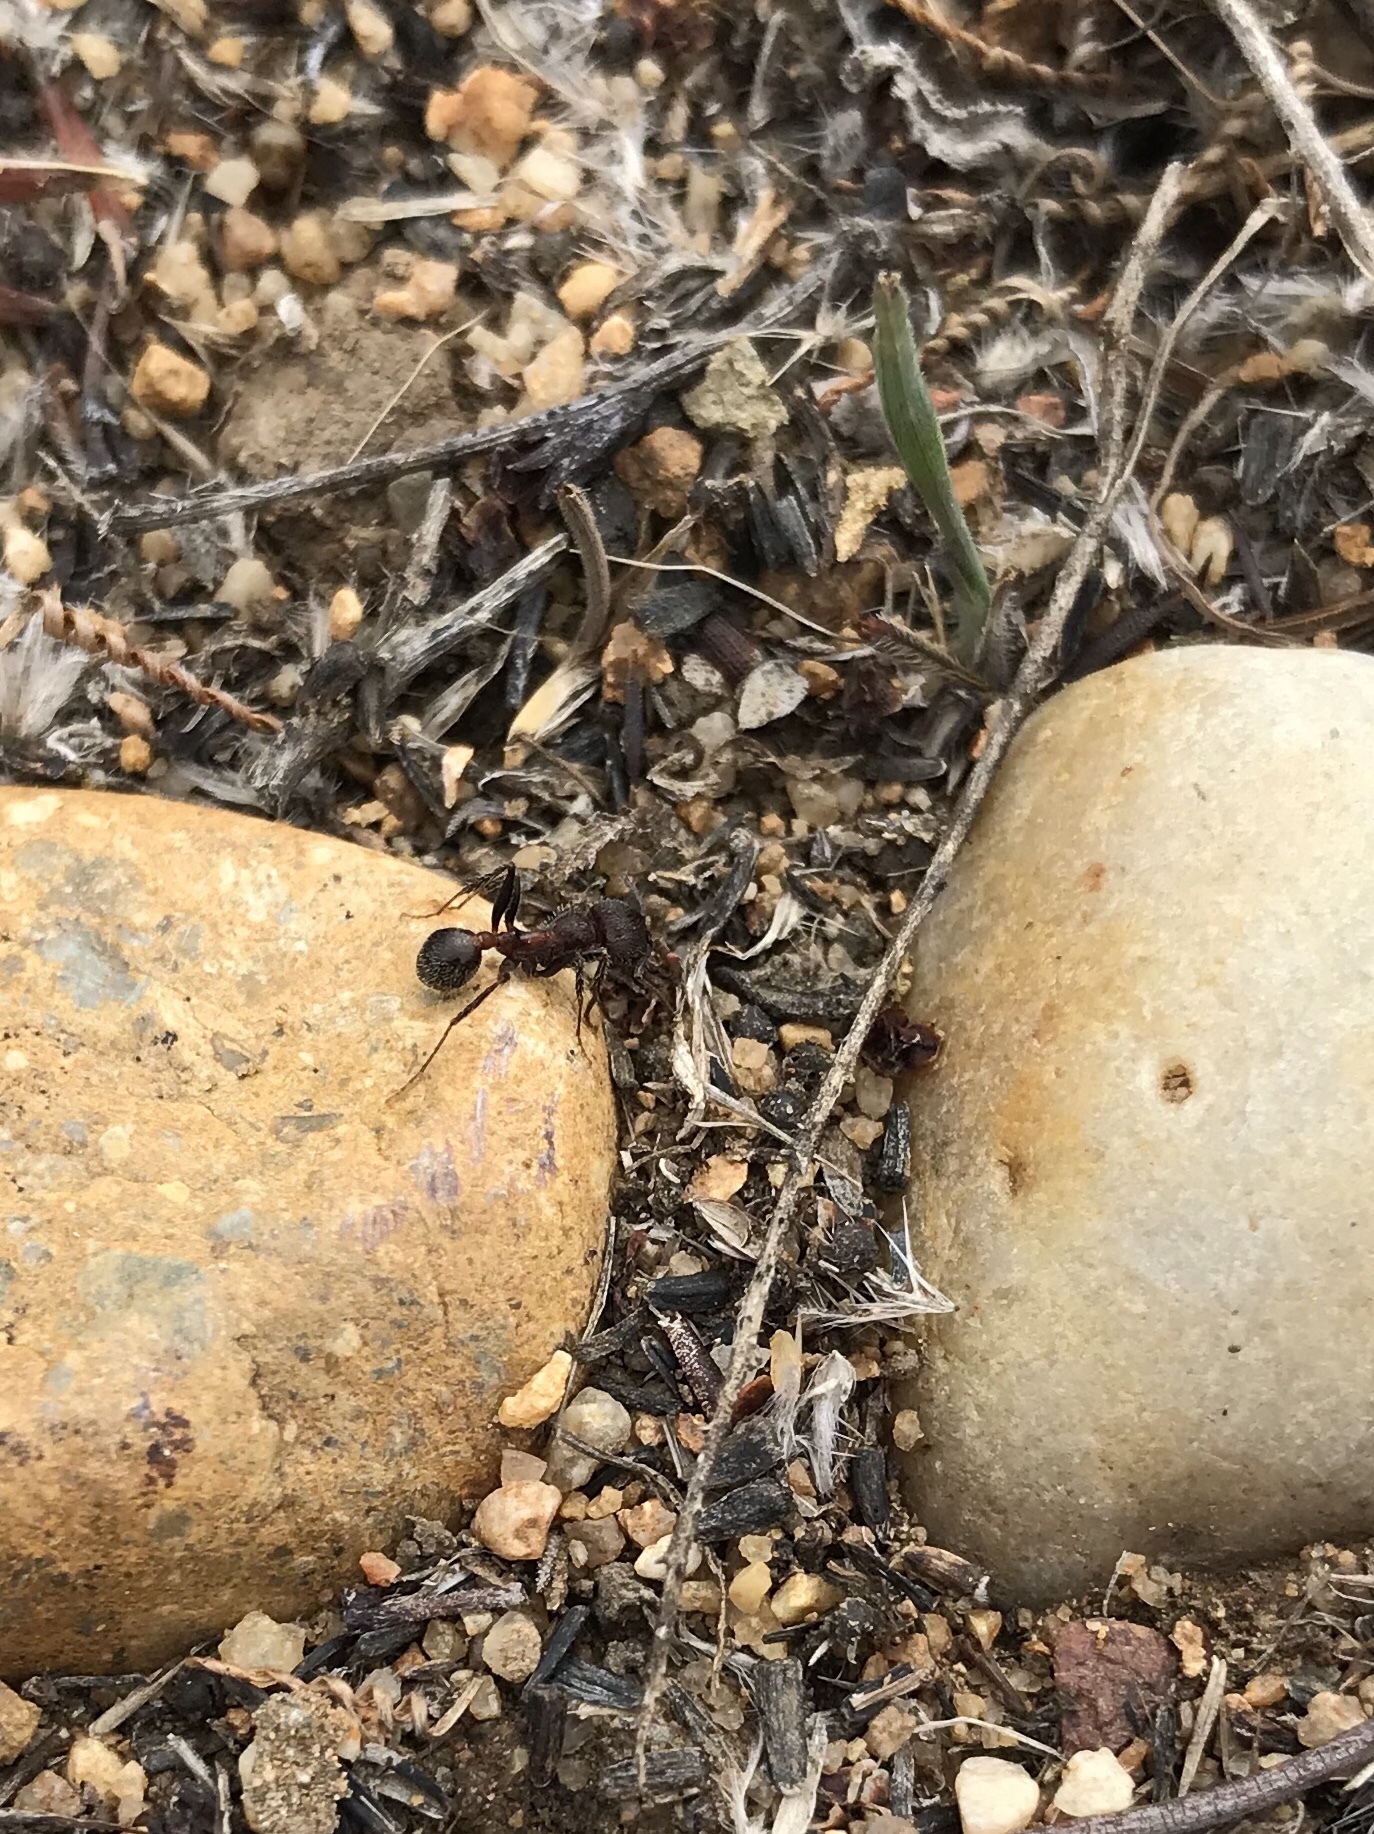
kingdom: Animalia
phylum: Arthropoda
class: Insecta
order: Hymenoptera
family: Formicidae
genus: Veromessor
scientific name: Veromessor andrei
